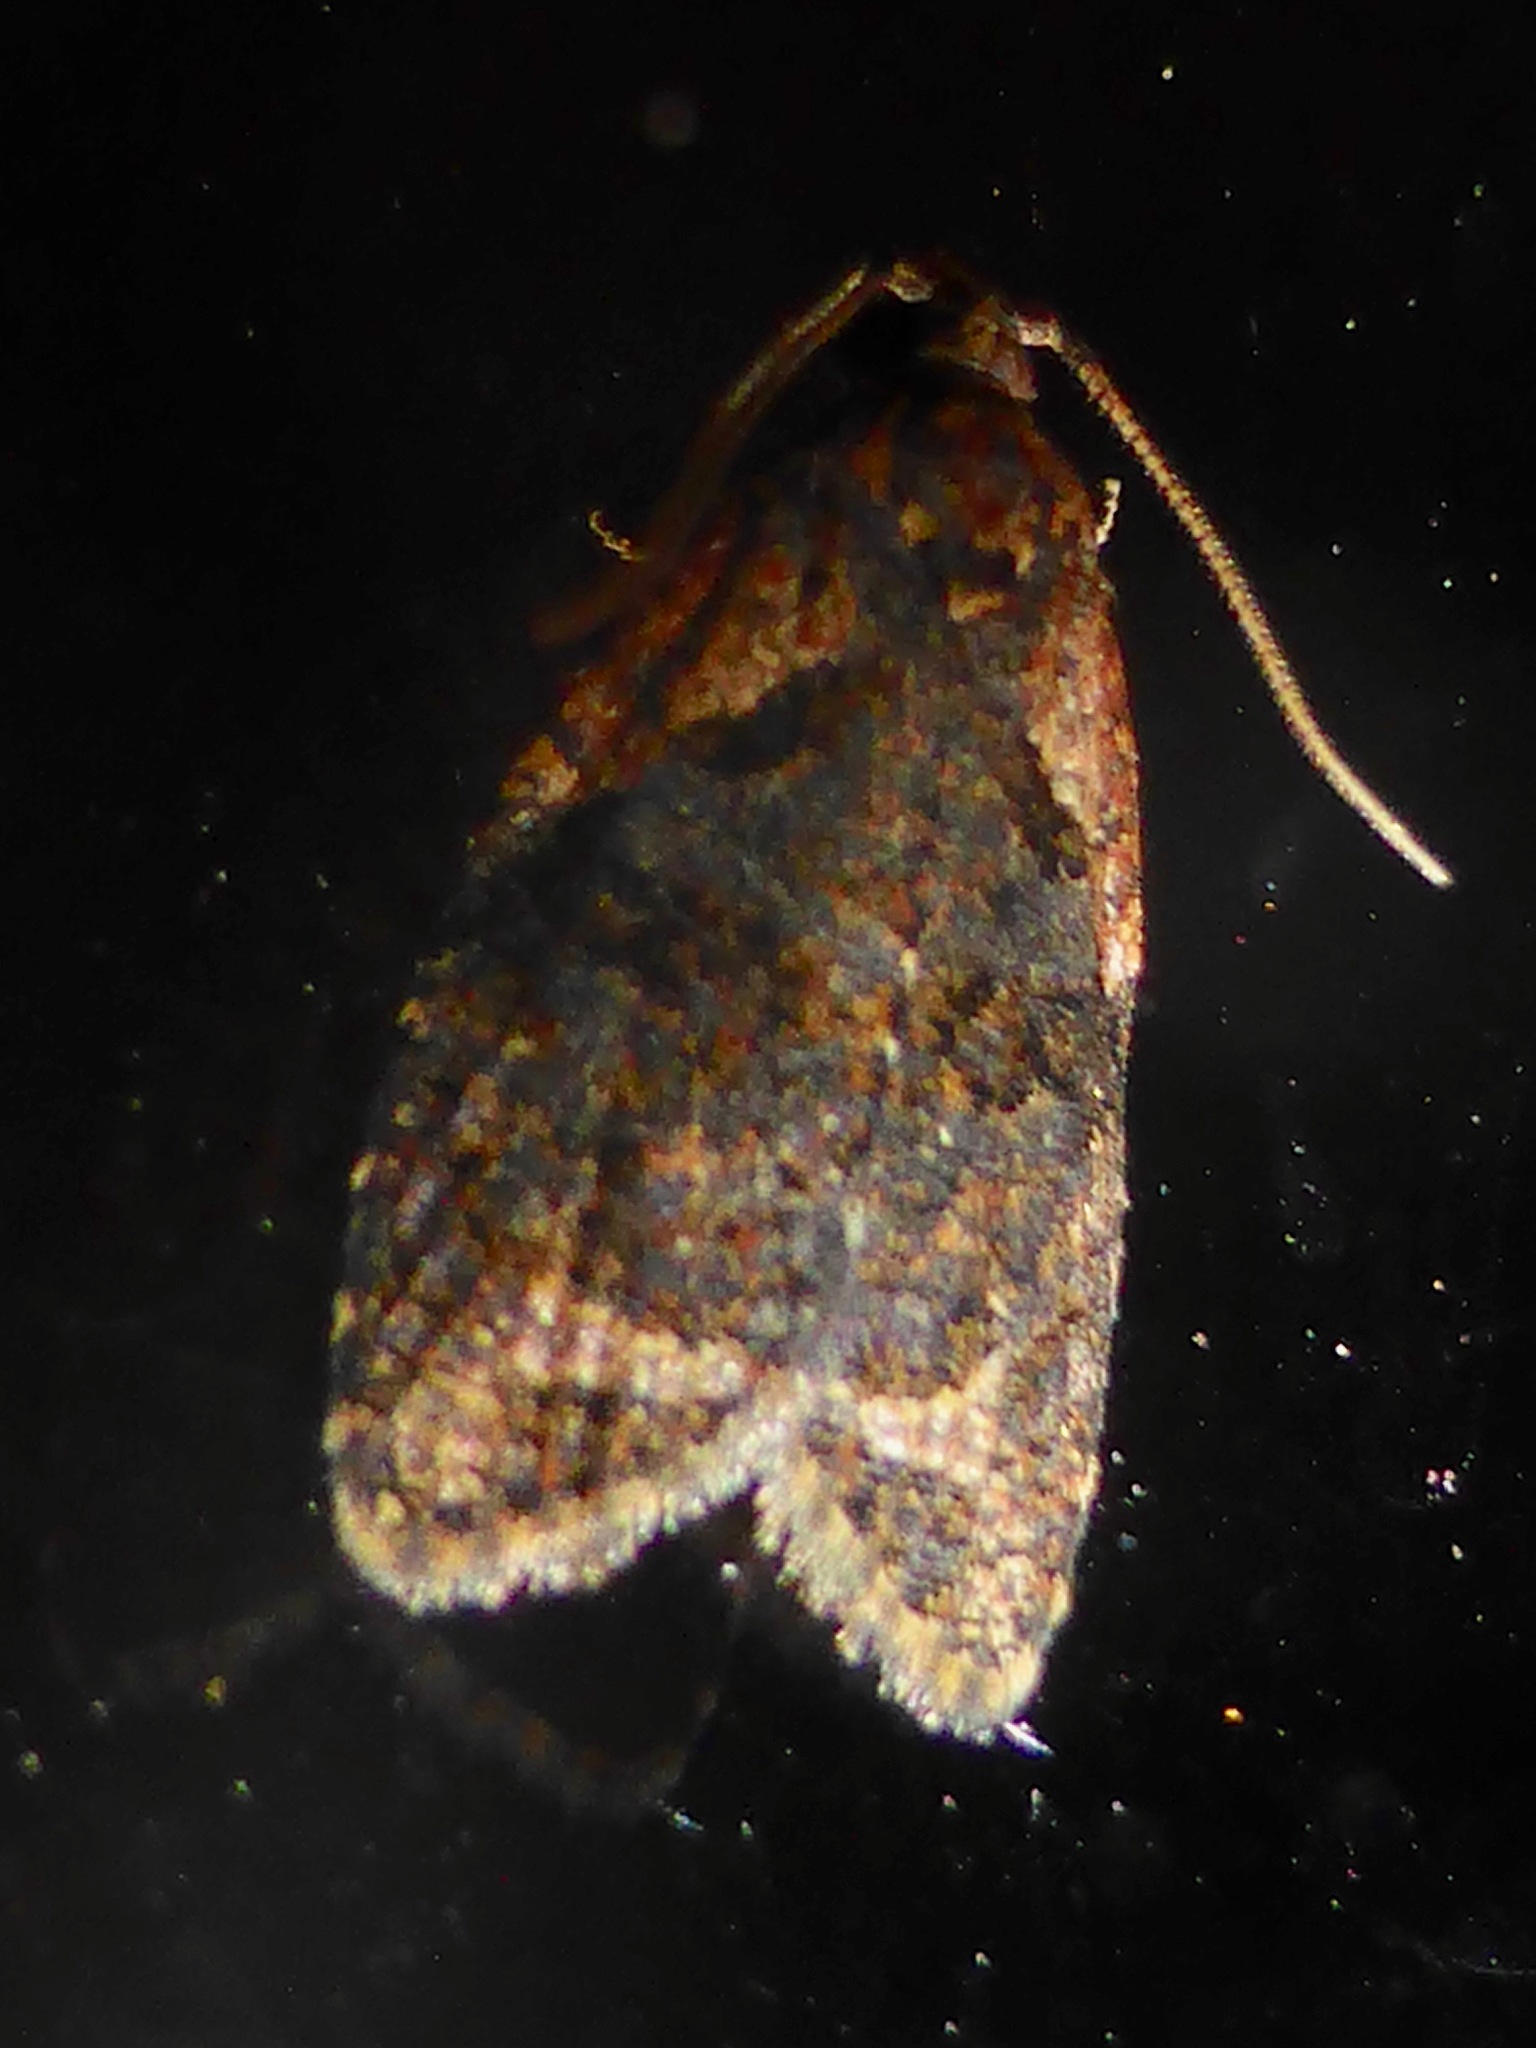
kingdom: Animalia
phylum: Arthropoda
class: Insecta
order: Lepidoptera
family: Tortricidae
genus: Capua
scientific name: Capua intractana
